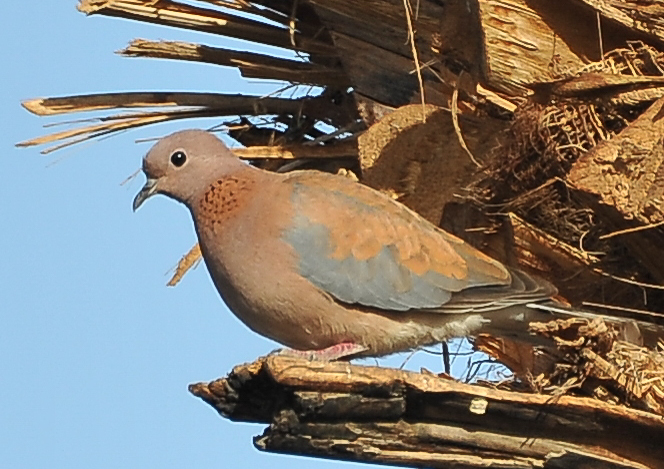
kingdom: Animalia
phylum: Chordata
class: Aves
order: Columbiformes
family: Columbidae
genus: Spilopelia
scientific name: Spilopelia senegalensis
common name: Laughing dove
